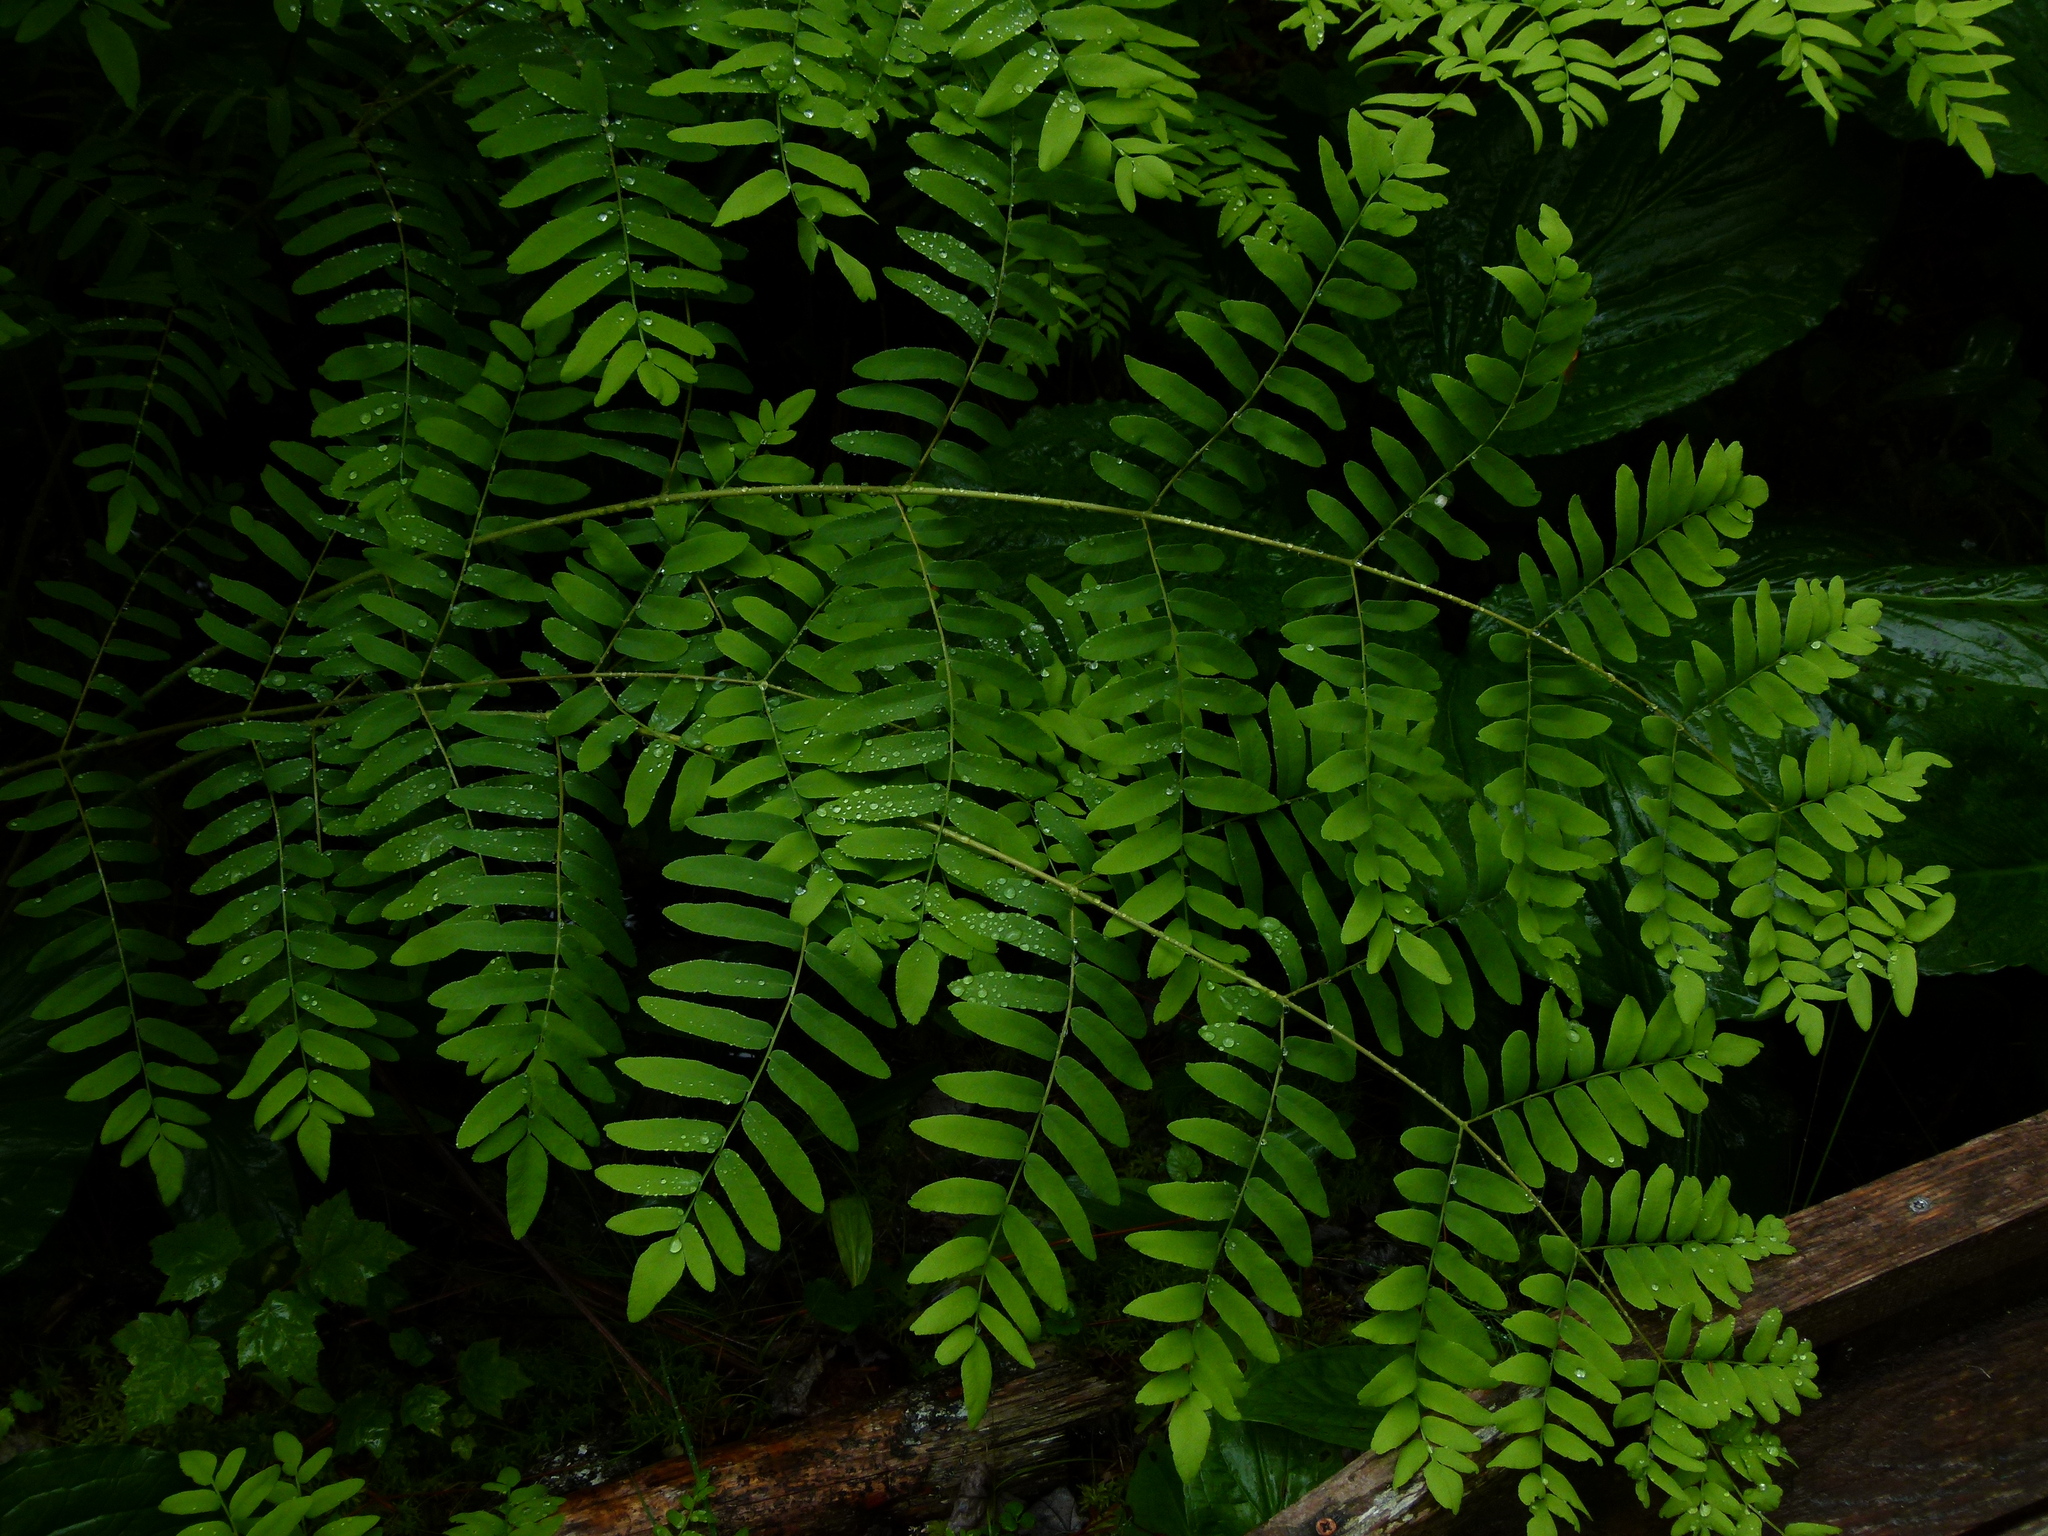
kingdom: Plantae
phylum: Tracheophyta
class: Polypodiopsida
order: Osmundales
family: Osmundaceae
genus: Osmunda
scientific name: Osmunda spectabilis
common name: American royal fern
